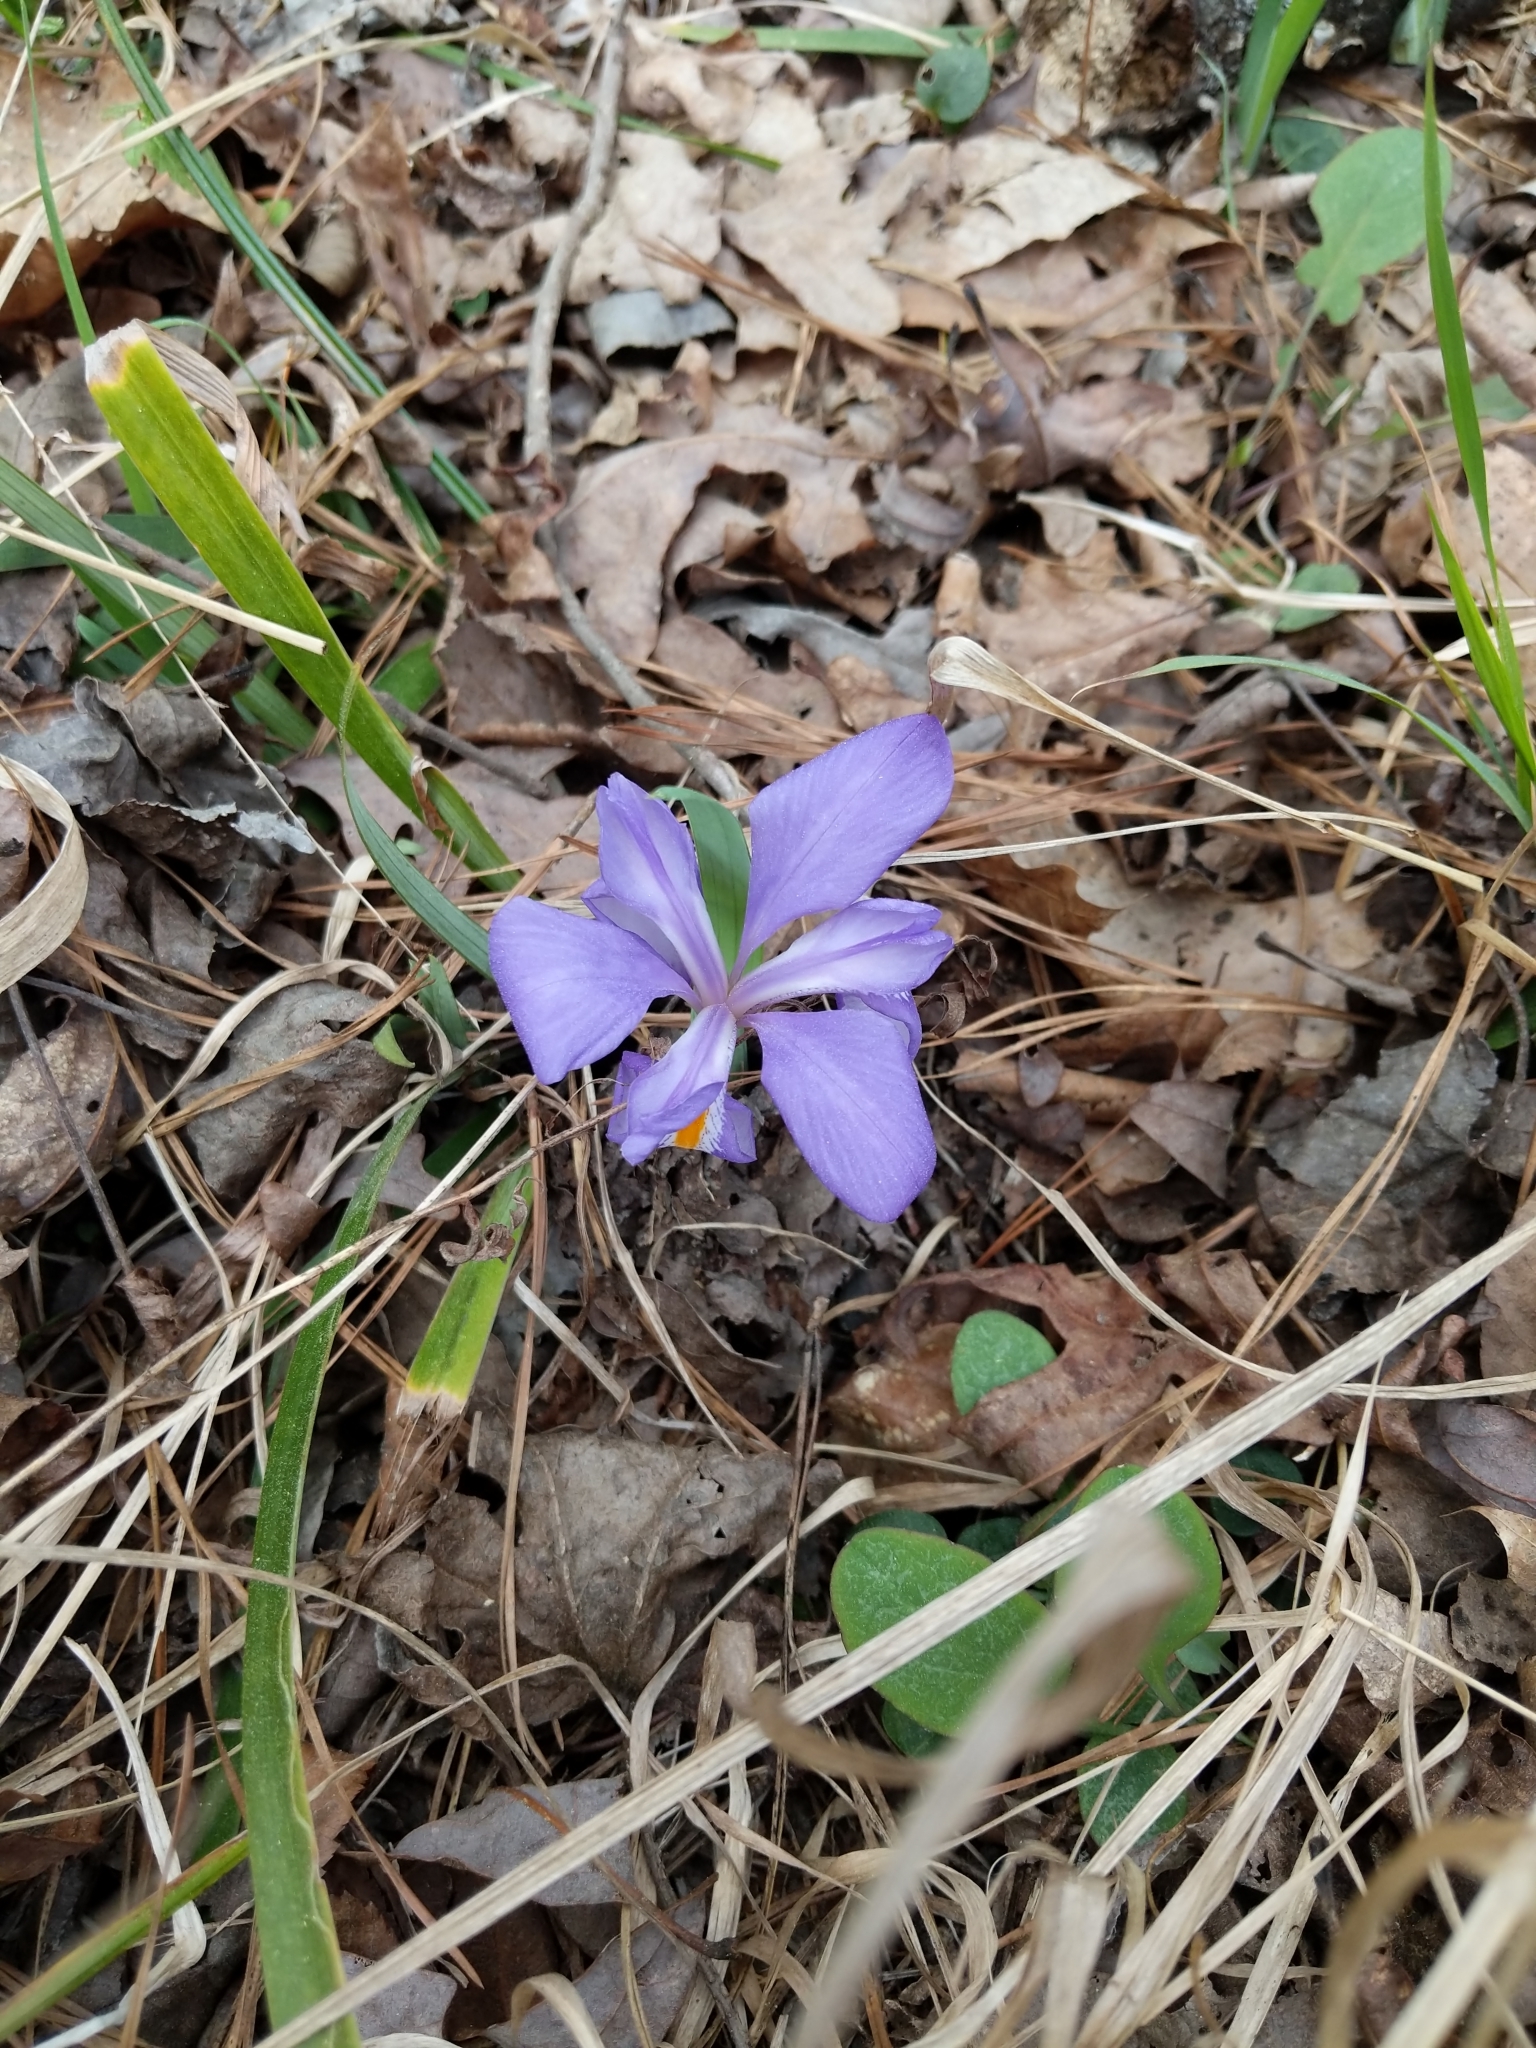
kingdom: Plantae
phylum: Tracheophyta
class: Liliopsida
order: Asparagales
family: Iridaceae
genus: Iris
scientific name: Iris verna
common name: Dwarf iris
